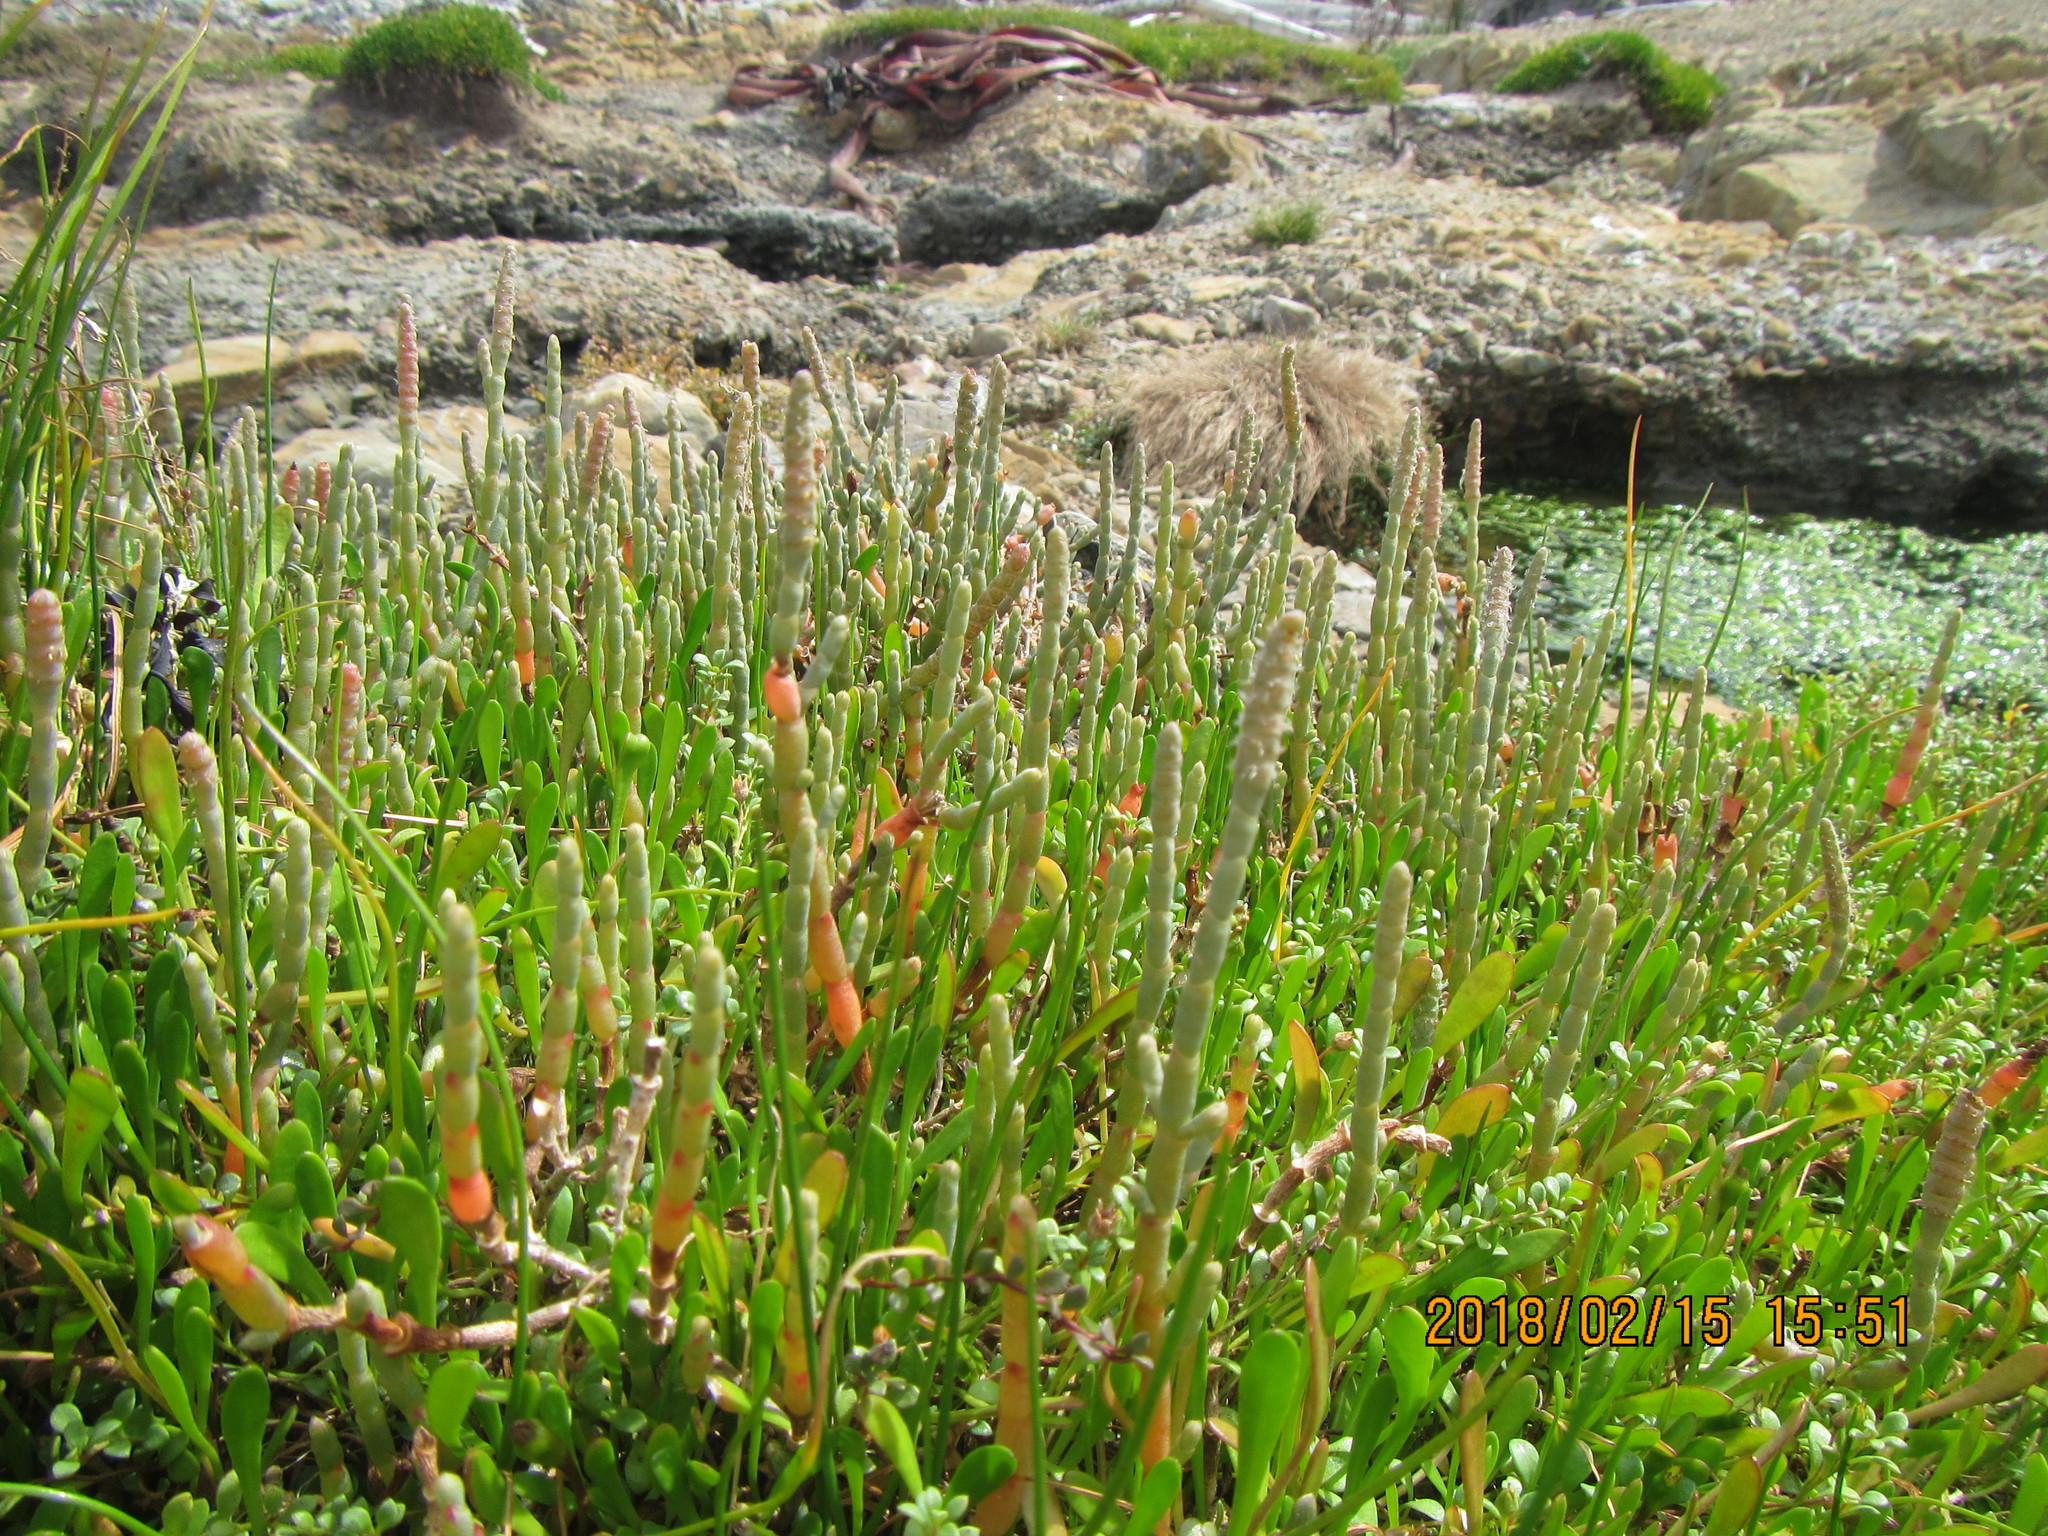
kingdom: Plantae
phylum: Tracheophyta
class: Magnoliopsida
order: Caryophyllales
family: Amaranthaceae
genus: Salicornia
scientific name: Salicornia quinqueflora
